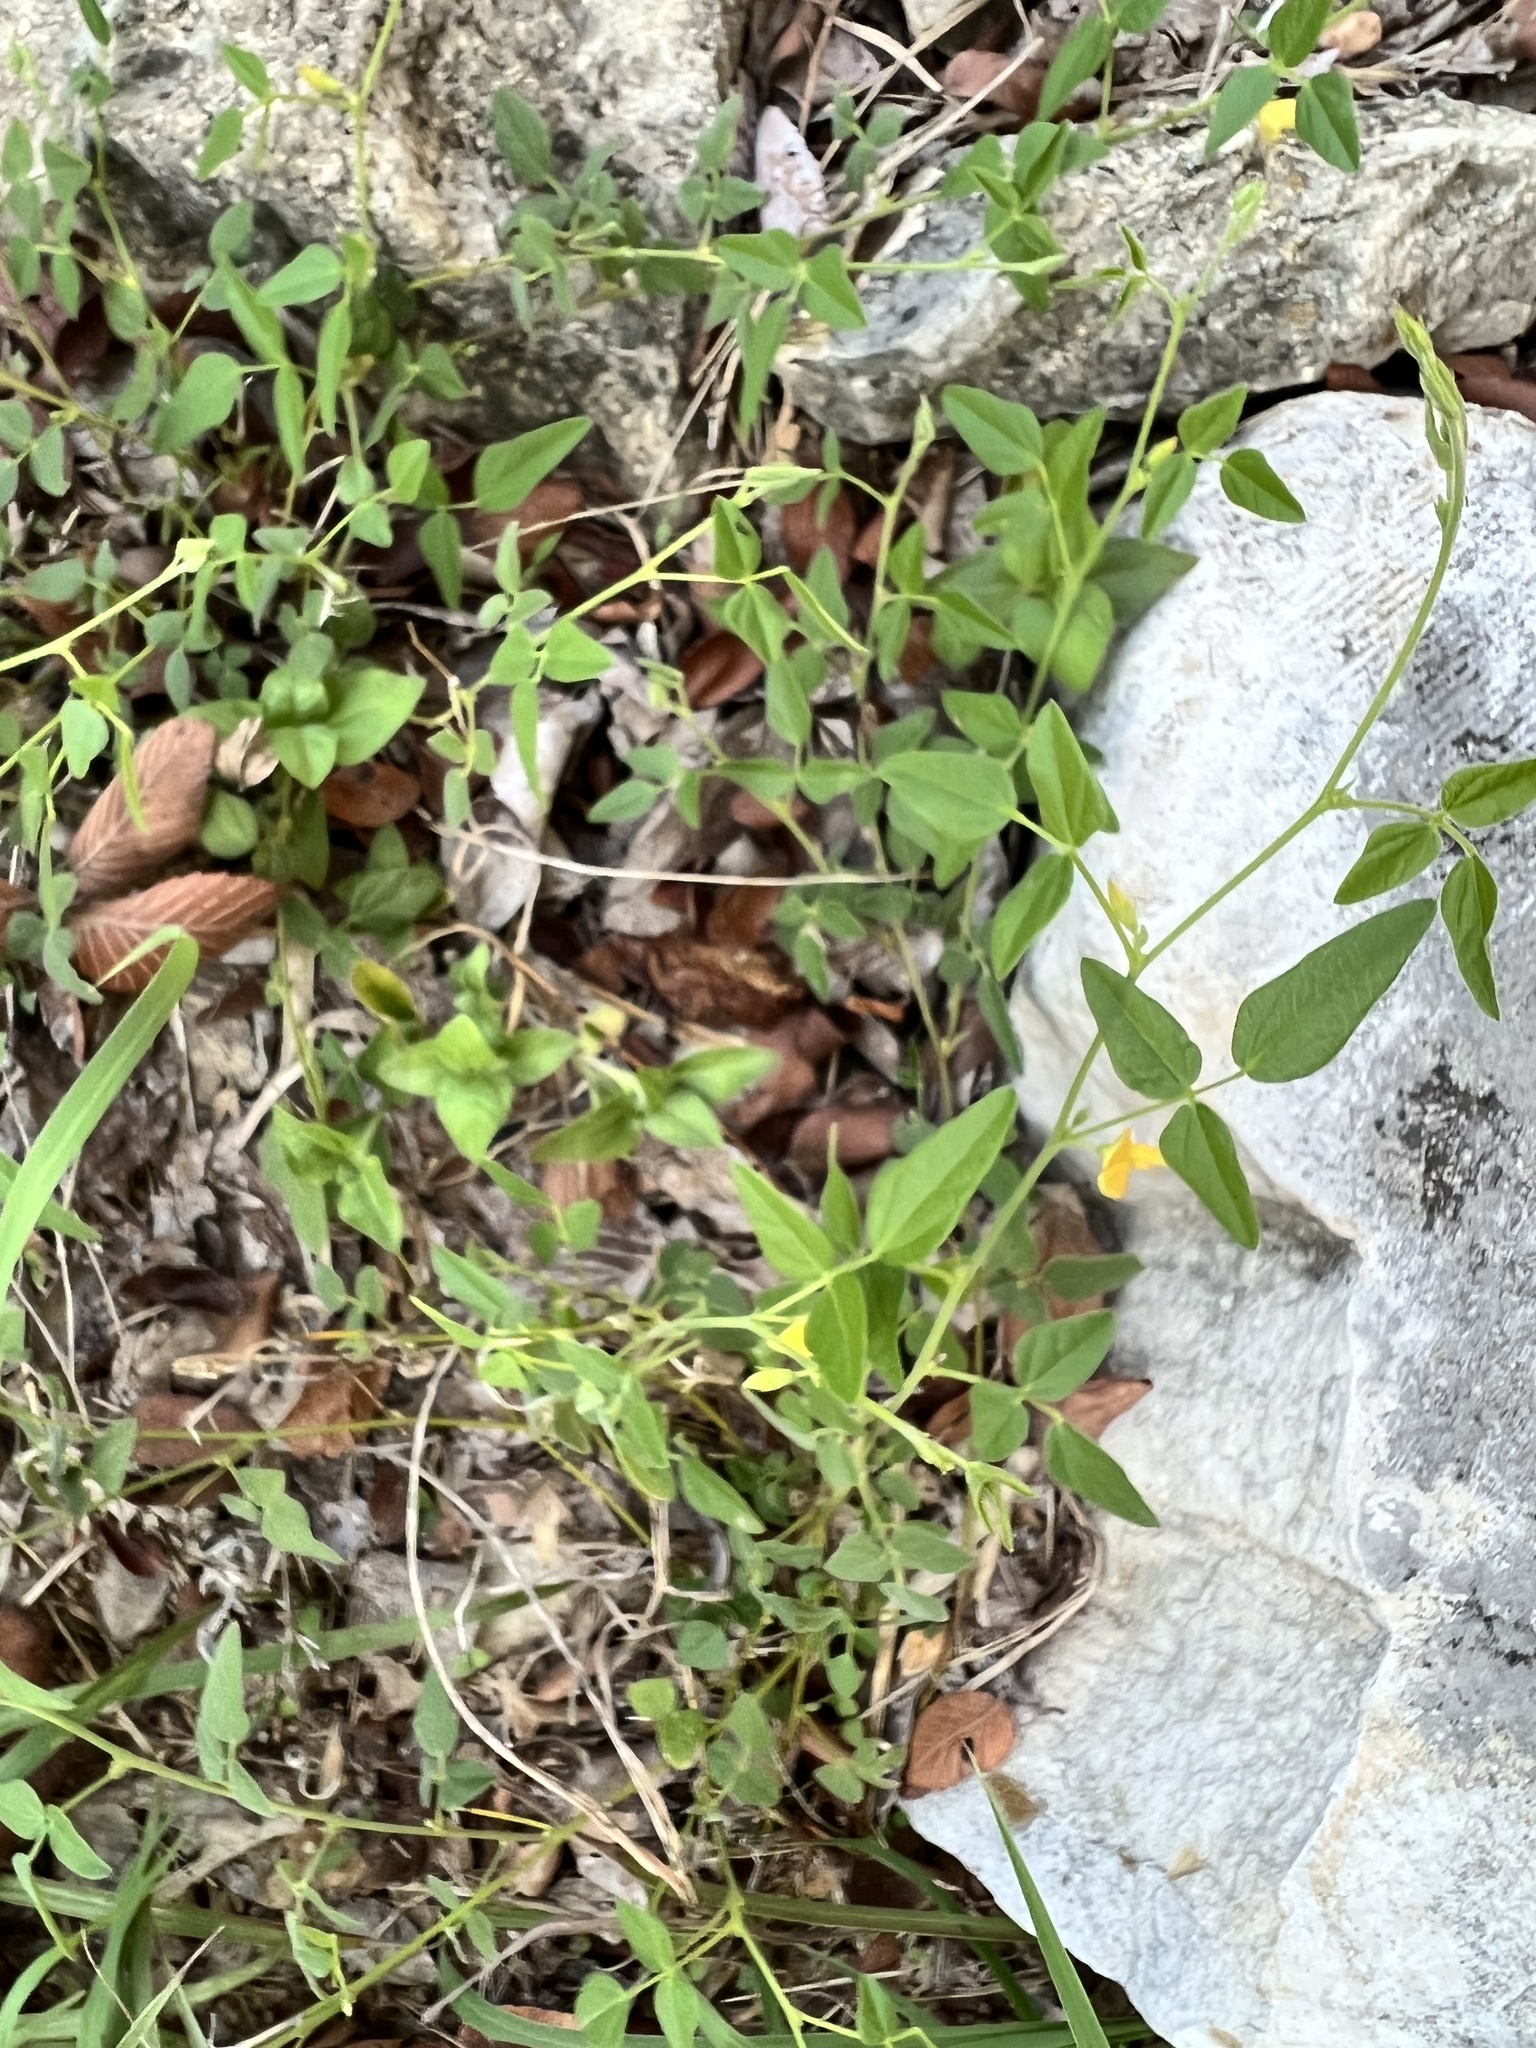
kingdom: Plantae
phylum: Tracheophyta
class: Magnoliopsida
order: Fabales
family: Fabaceae
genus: Rhynchosia
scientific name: Rhynchosia senna
